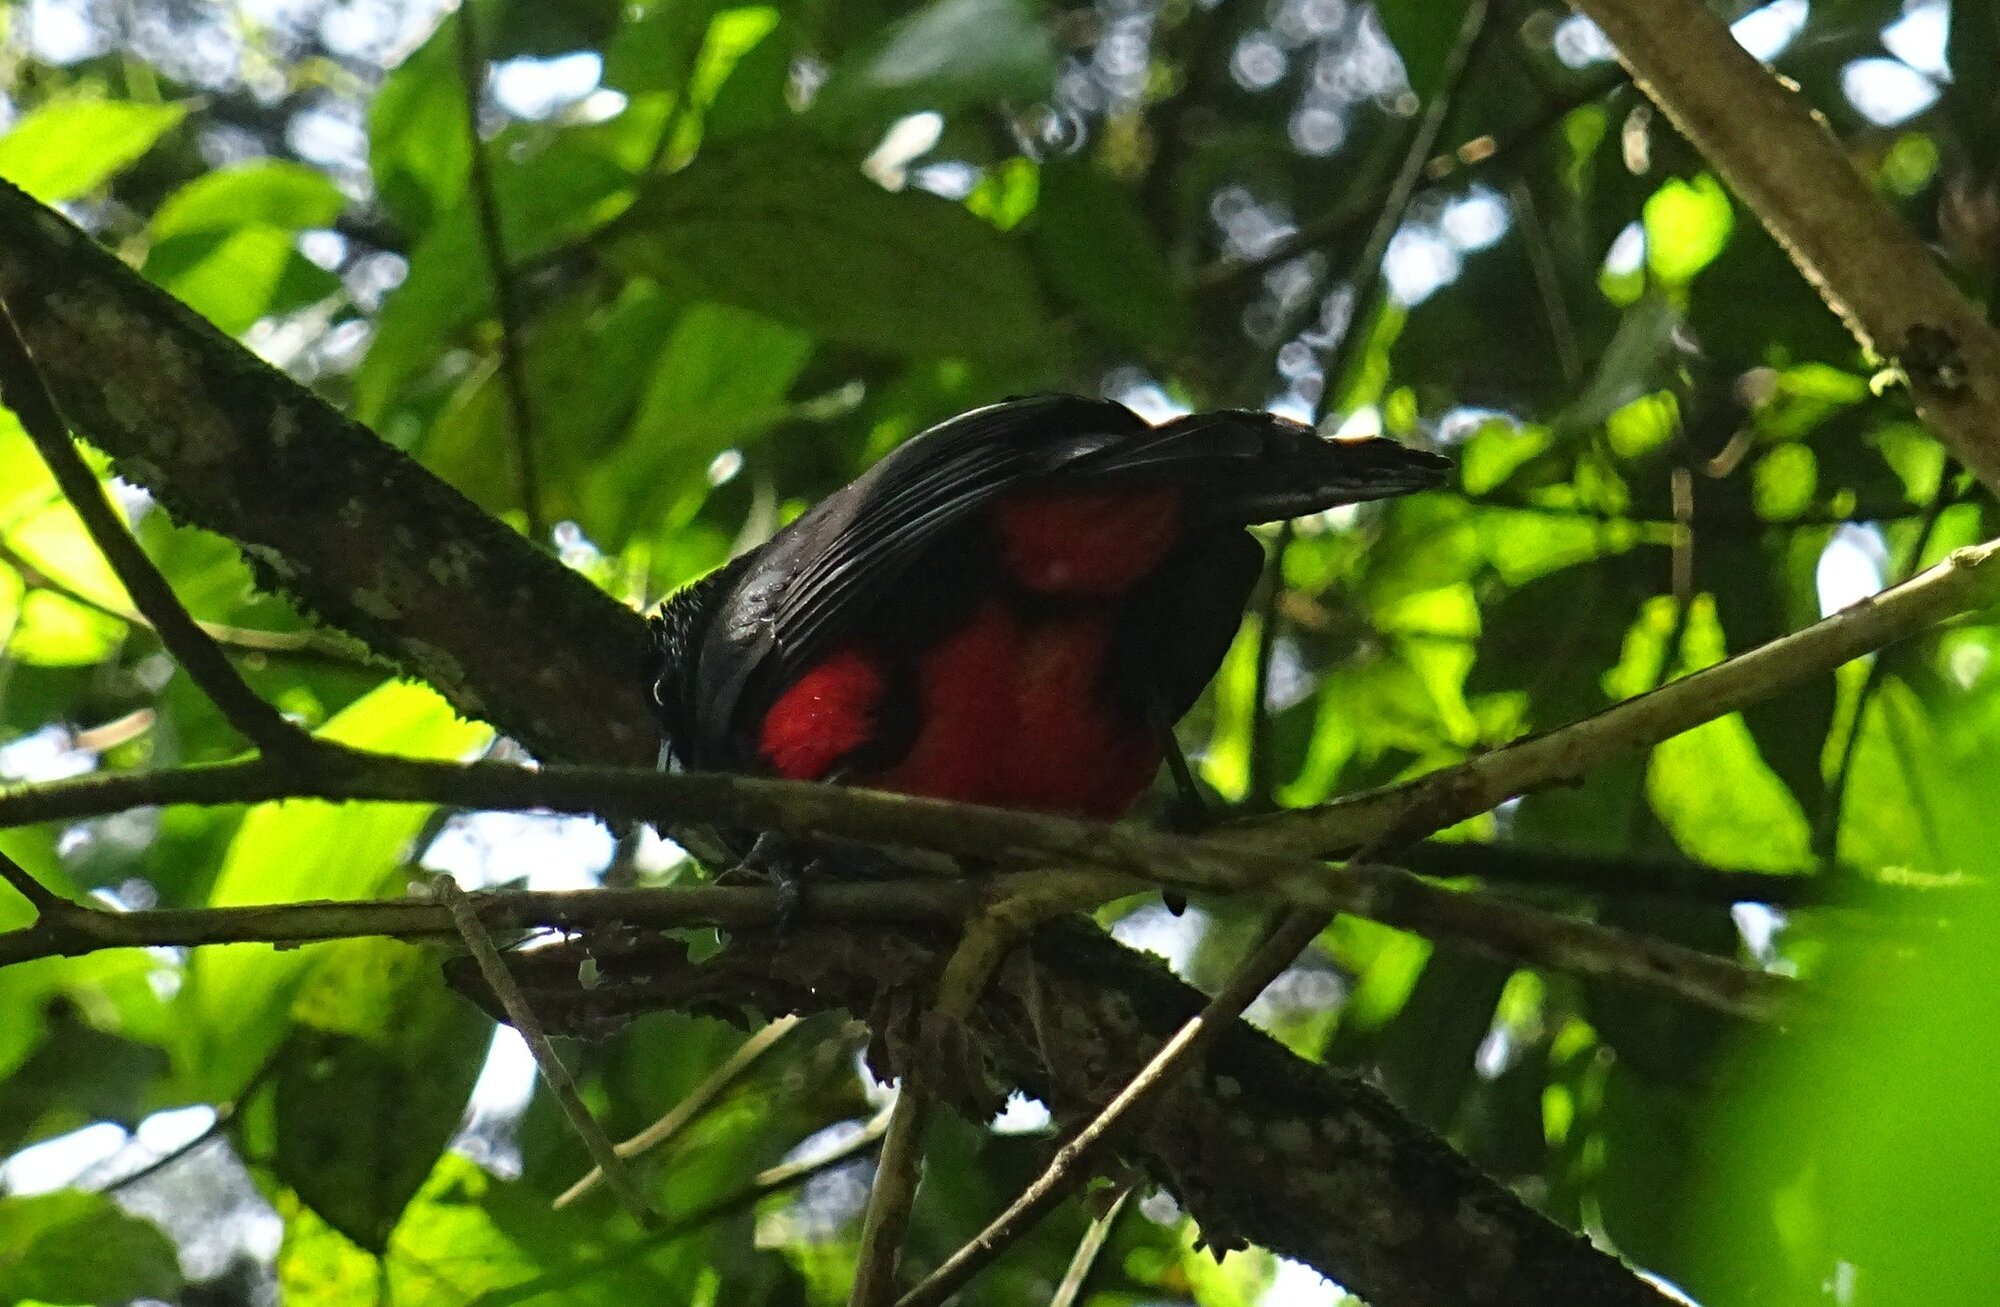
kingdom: Animalia
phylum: Chordata
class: Aves
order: Passeriformes
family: Icteridae
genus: Hypopyrrhus
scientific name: Hypopyrrhus pyrohypogaster
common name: Red-bellied grackle
